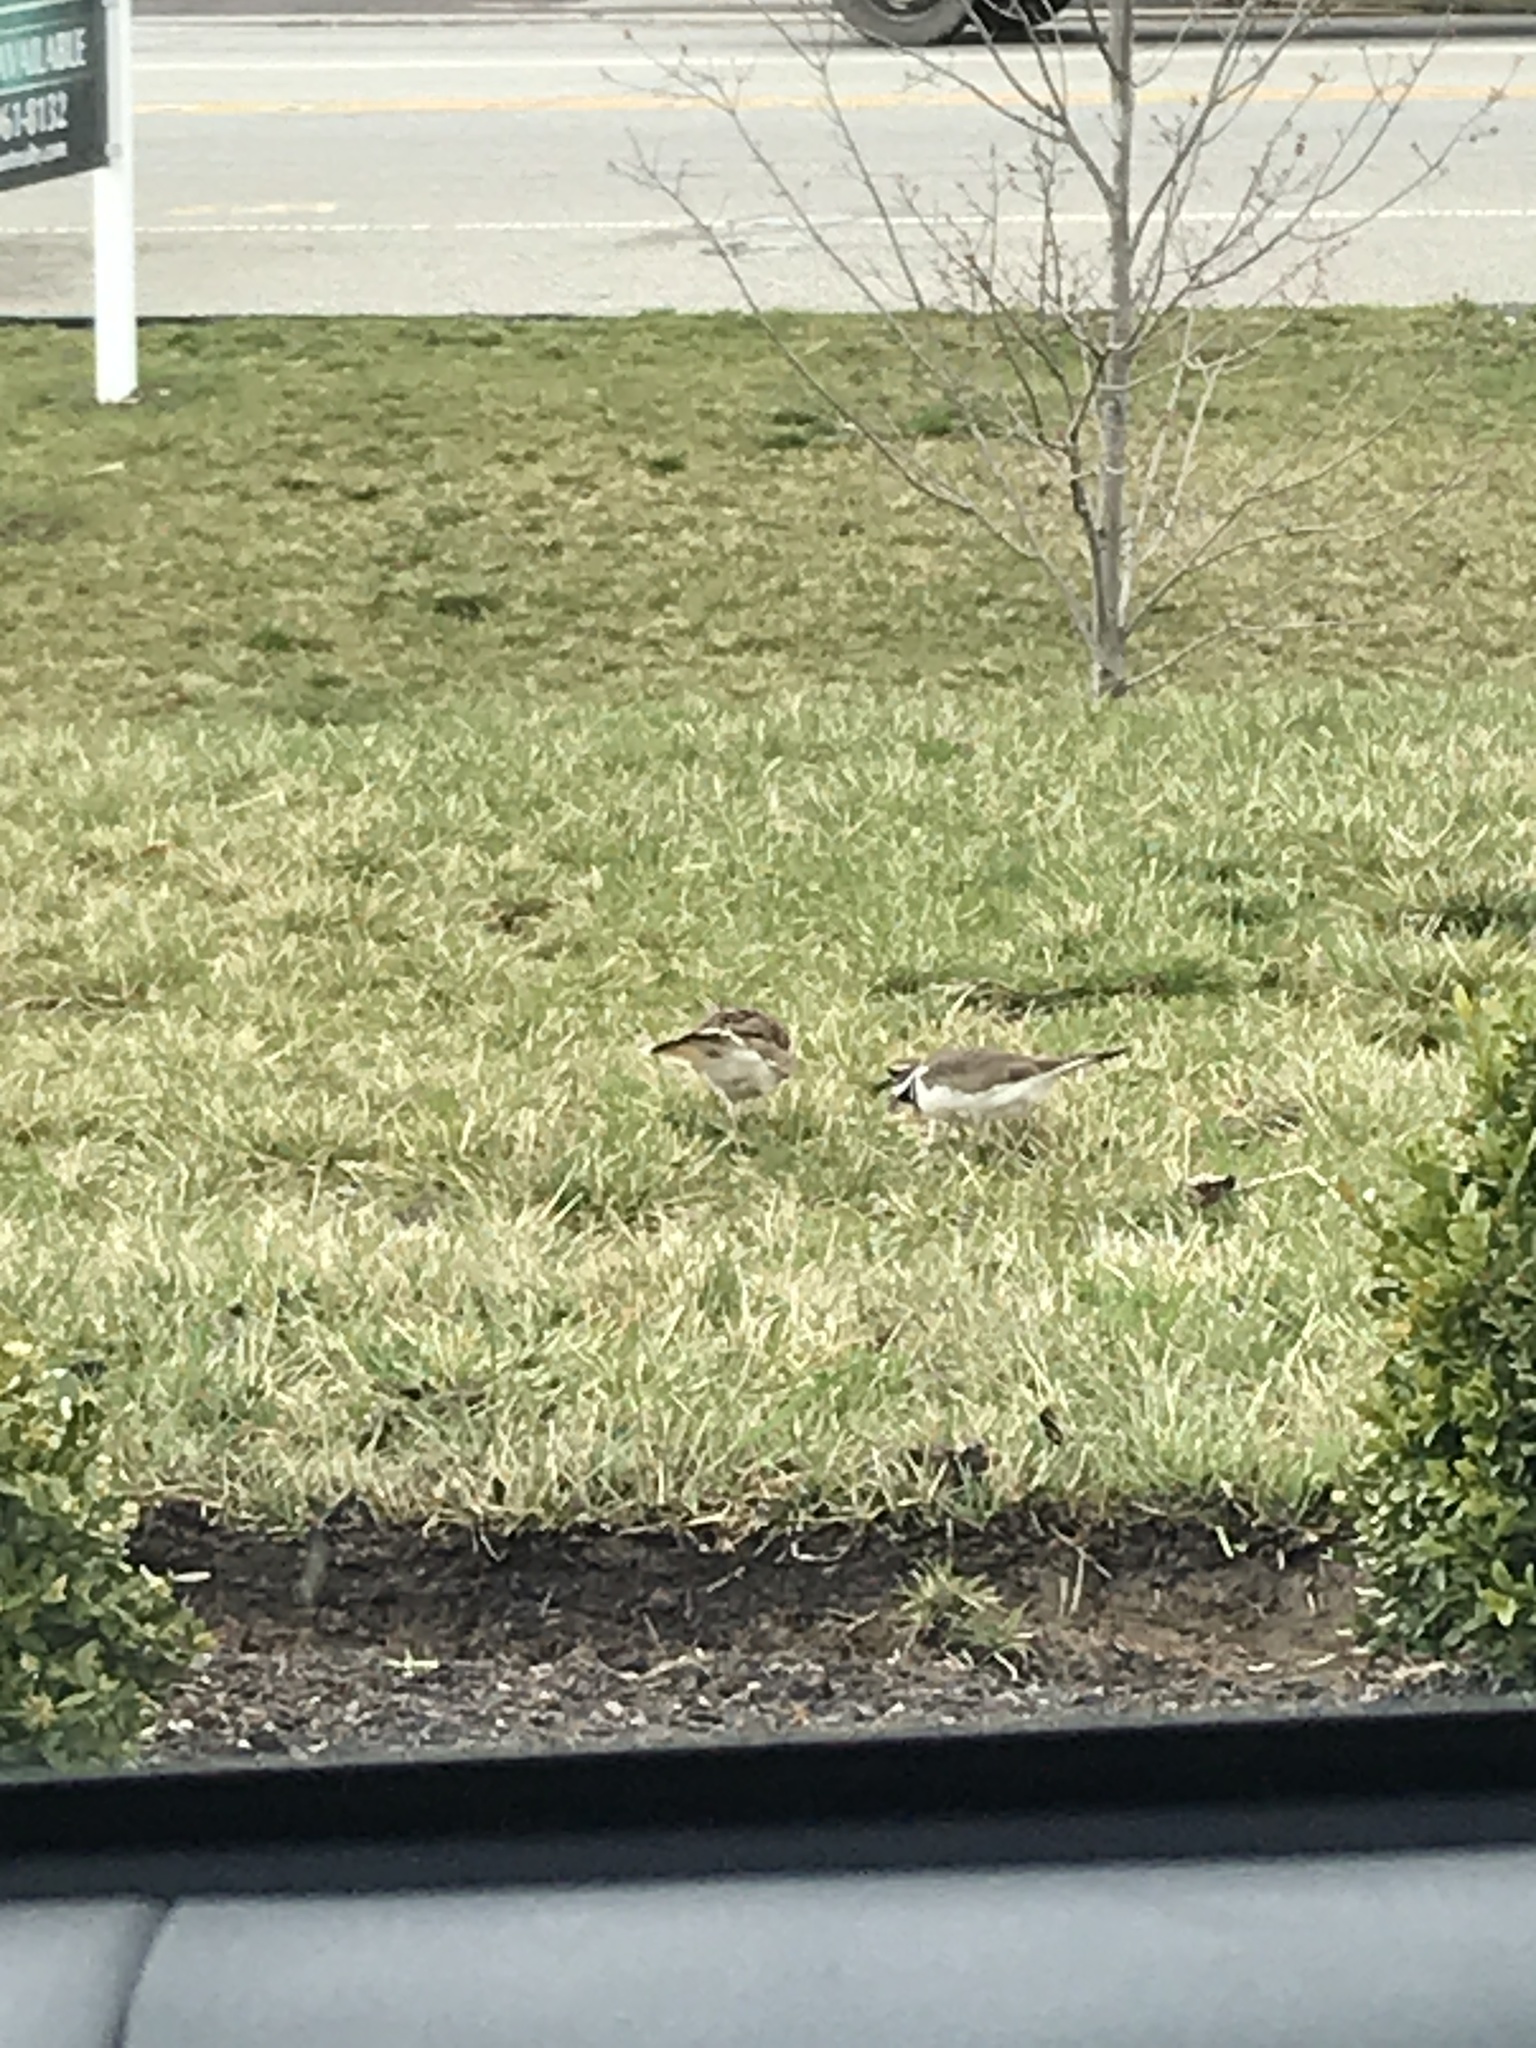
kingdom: Animalia
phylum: Chordata
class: Aves
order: Charadriiformes
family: Charadriidae
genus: Charadrius
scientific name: Charadrius vociferus
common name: Killdeer
